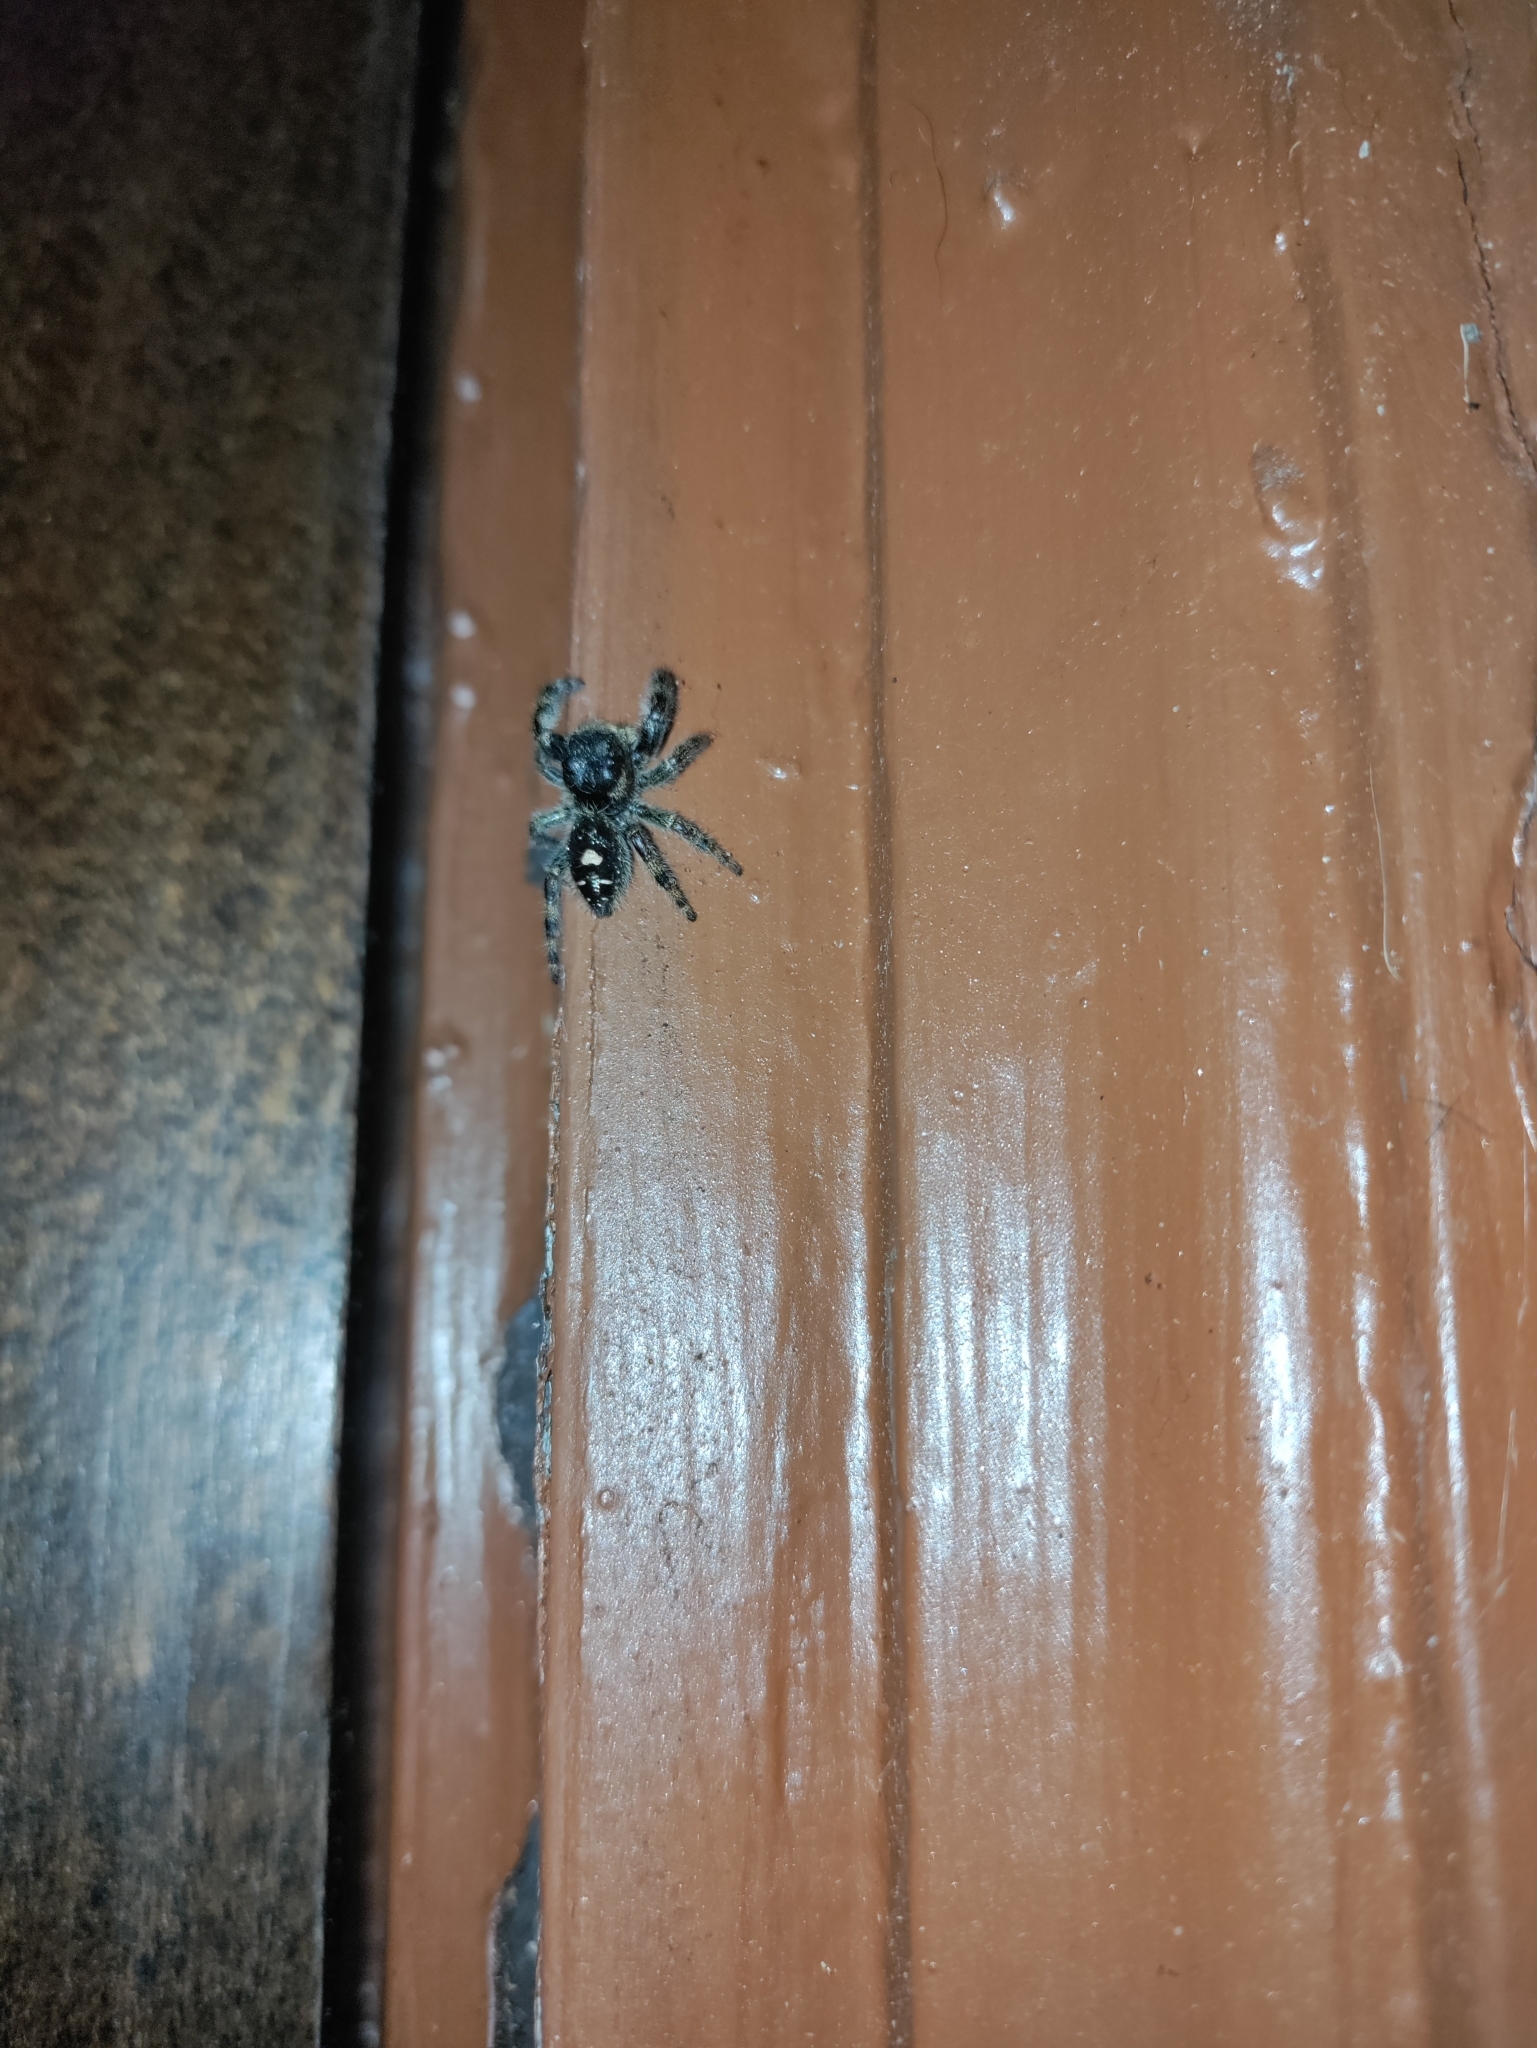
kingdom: Animalia
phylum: Arthropoda
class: Arachnida
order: Araneae
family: Salticidae
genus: Phidippus
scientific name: Phidippus audax
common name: Bold jumper
